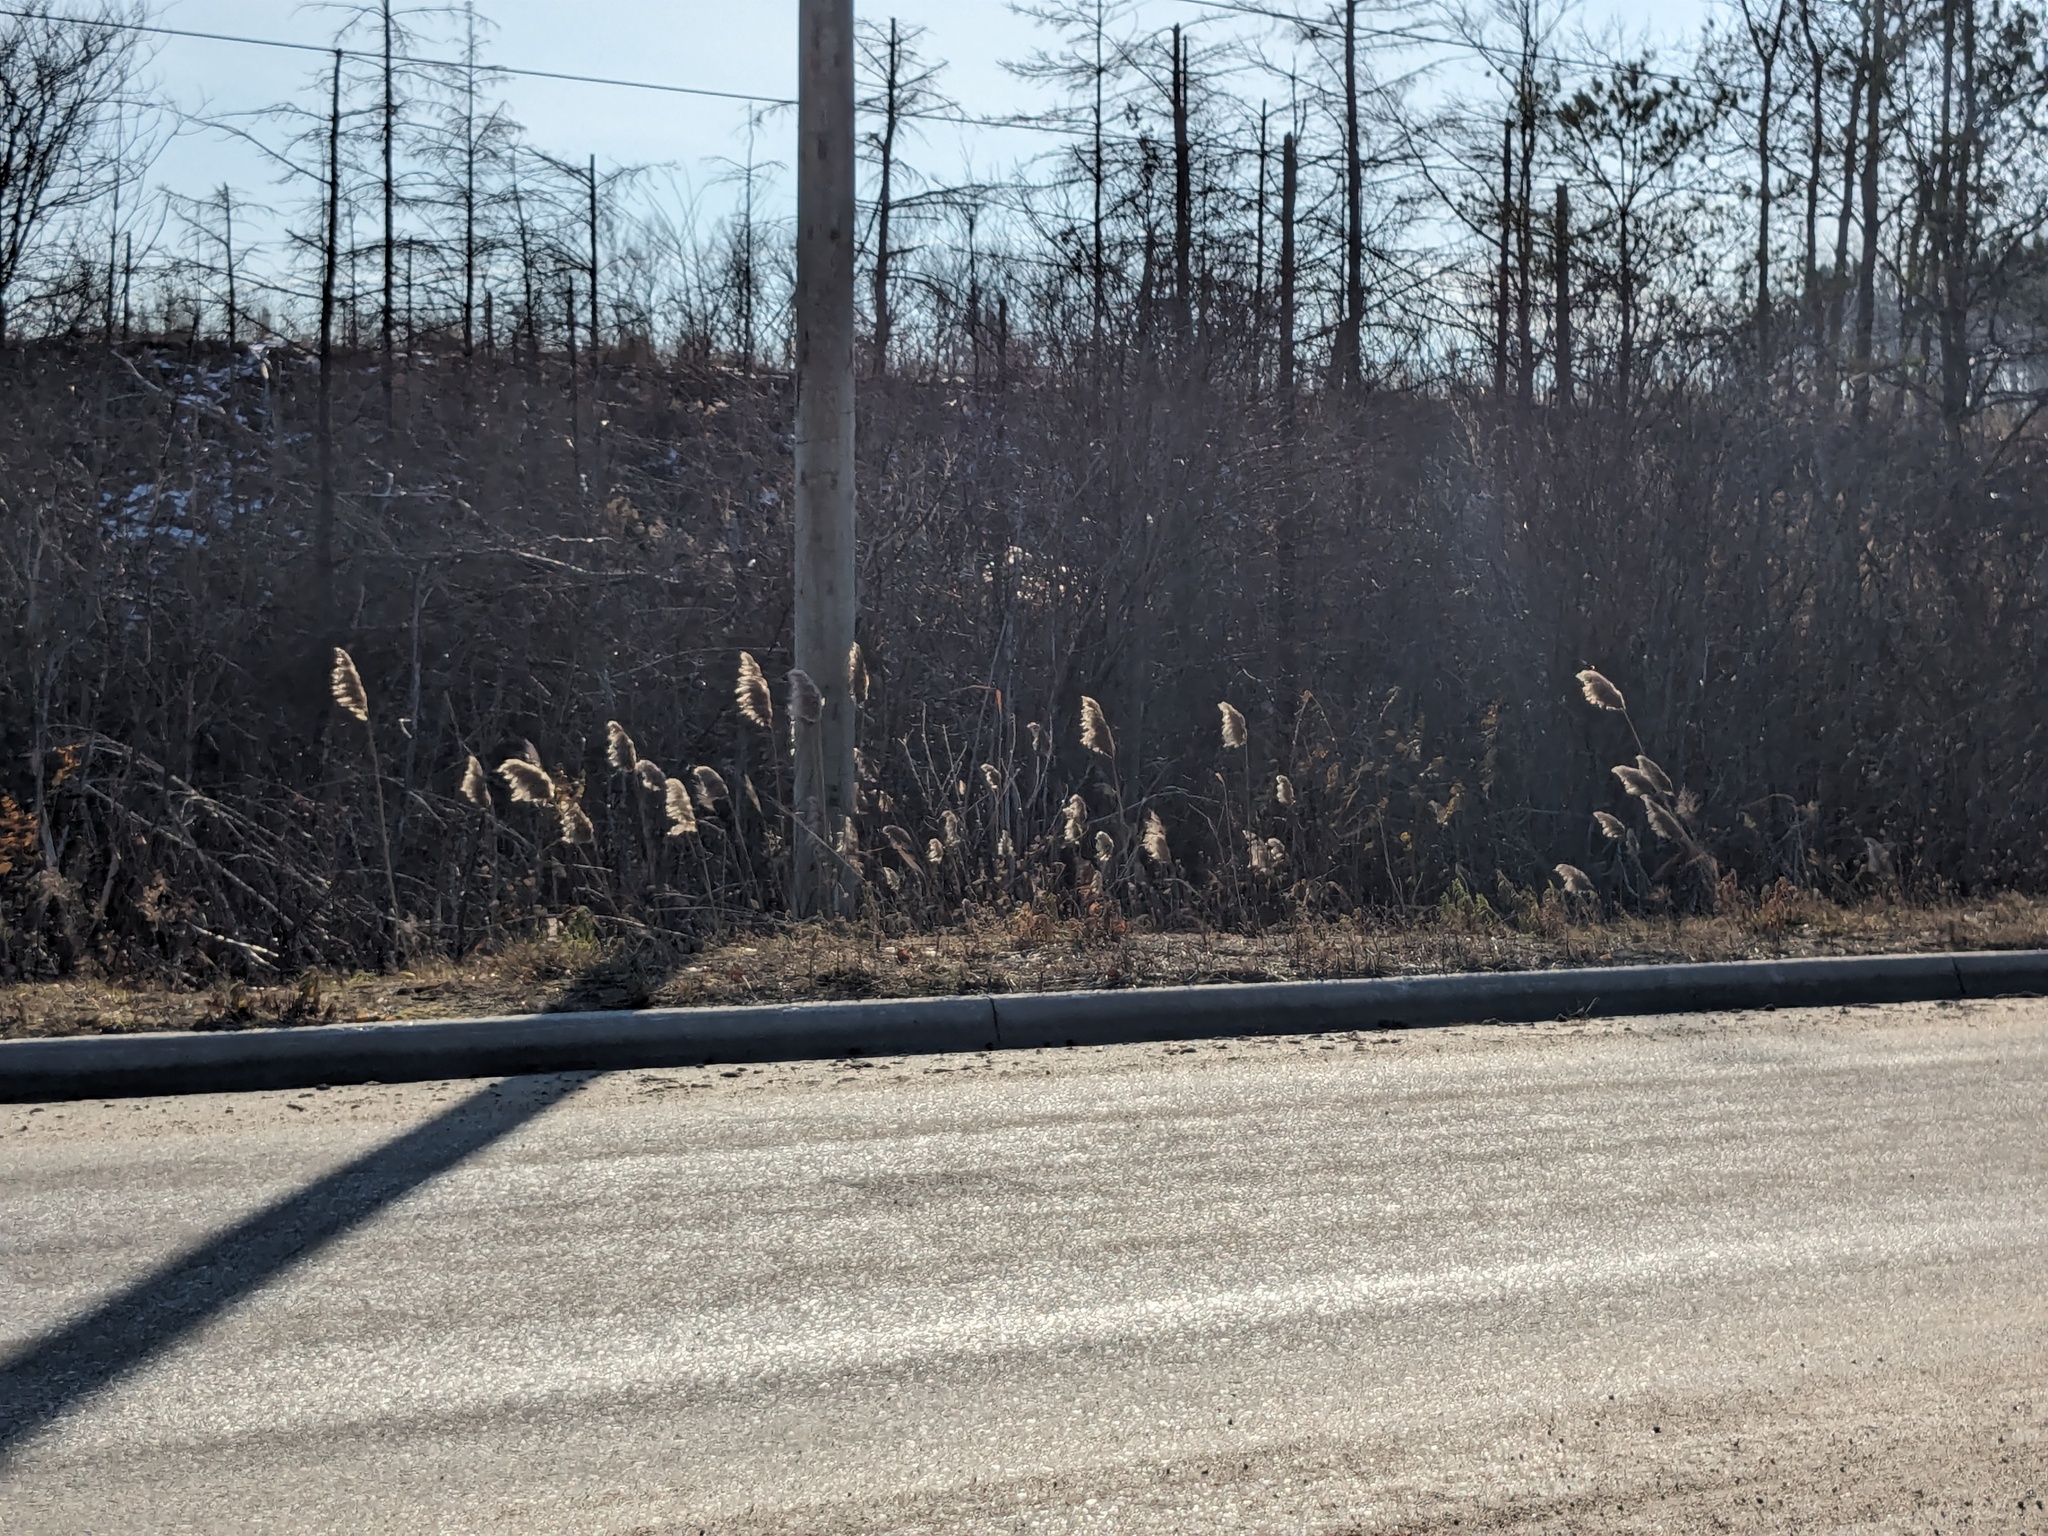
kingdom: Plantae
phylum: Tracheophyta
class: Liliopsida
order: Poales
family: Poaceae
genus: Phragmites
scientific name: Phragmites australis
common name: Common reed
